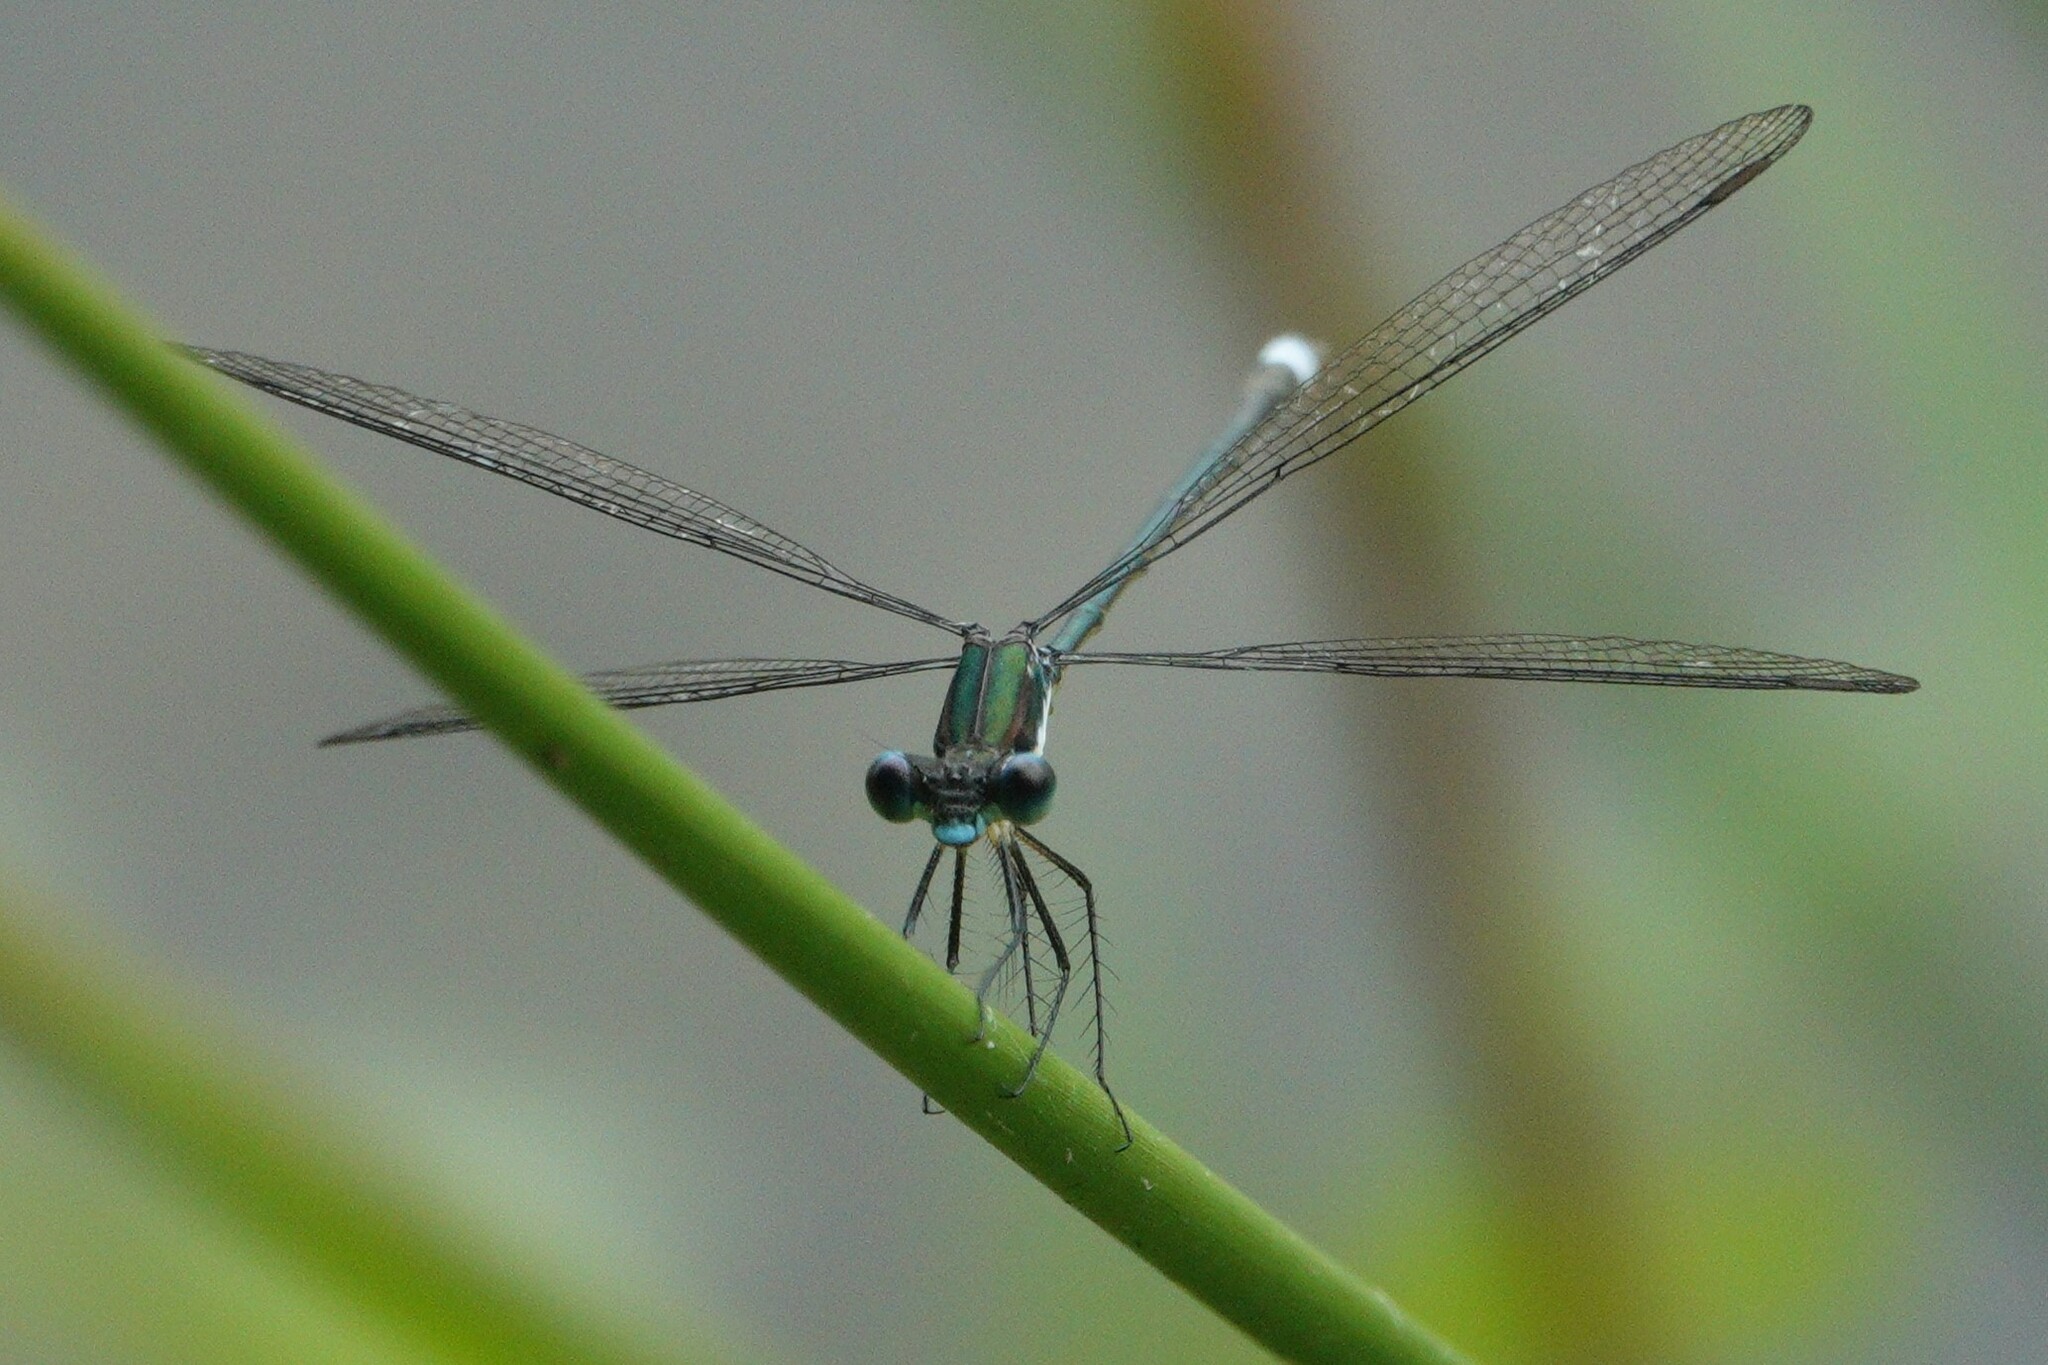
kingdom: Animalia
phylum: Arthropoda
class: Insecta
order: Odonata
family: Lestidae
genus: Lestes
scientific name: Lestes vigilax
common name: Swamp spreadwing
